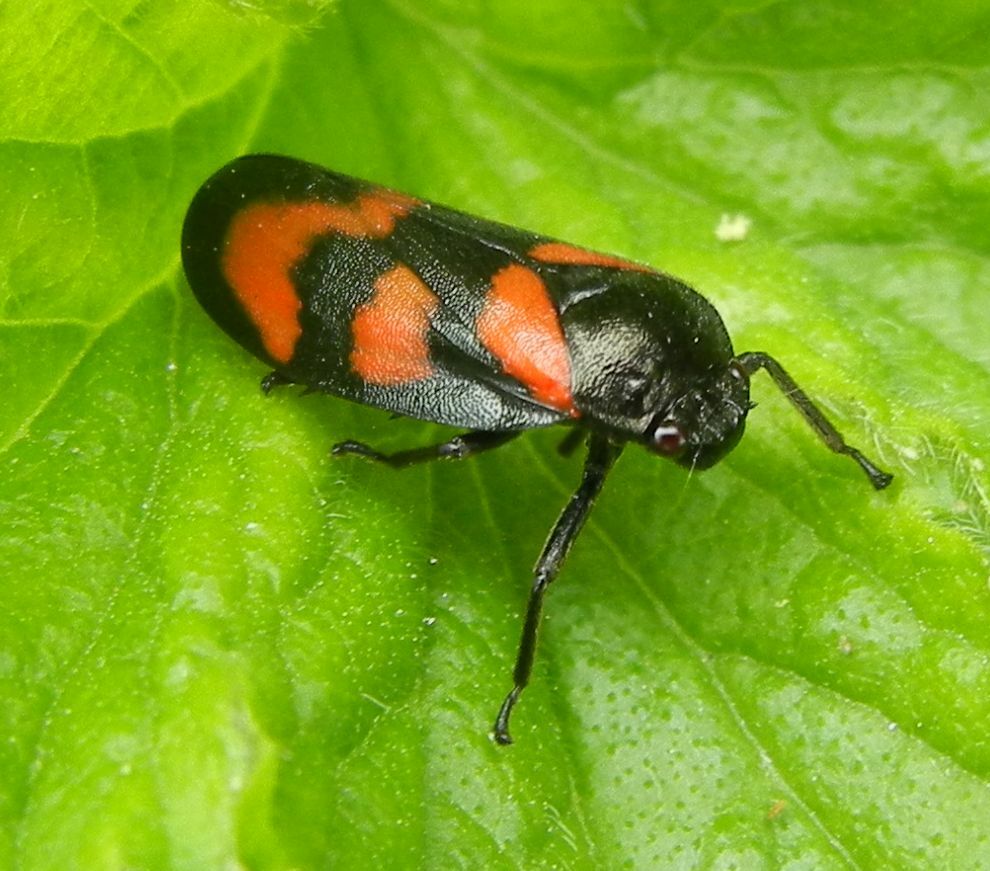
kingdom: Animalia
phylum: Arthropoda
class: Insecta
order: Hemiptera
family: Cercopidae
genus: Cercopis
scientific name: Cercopis vulnerata
